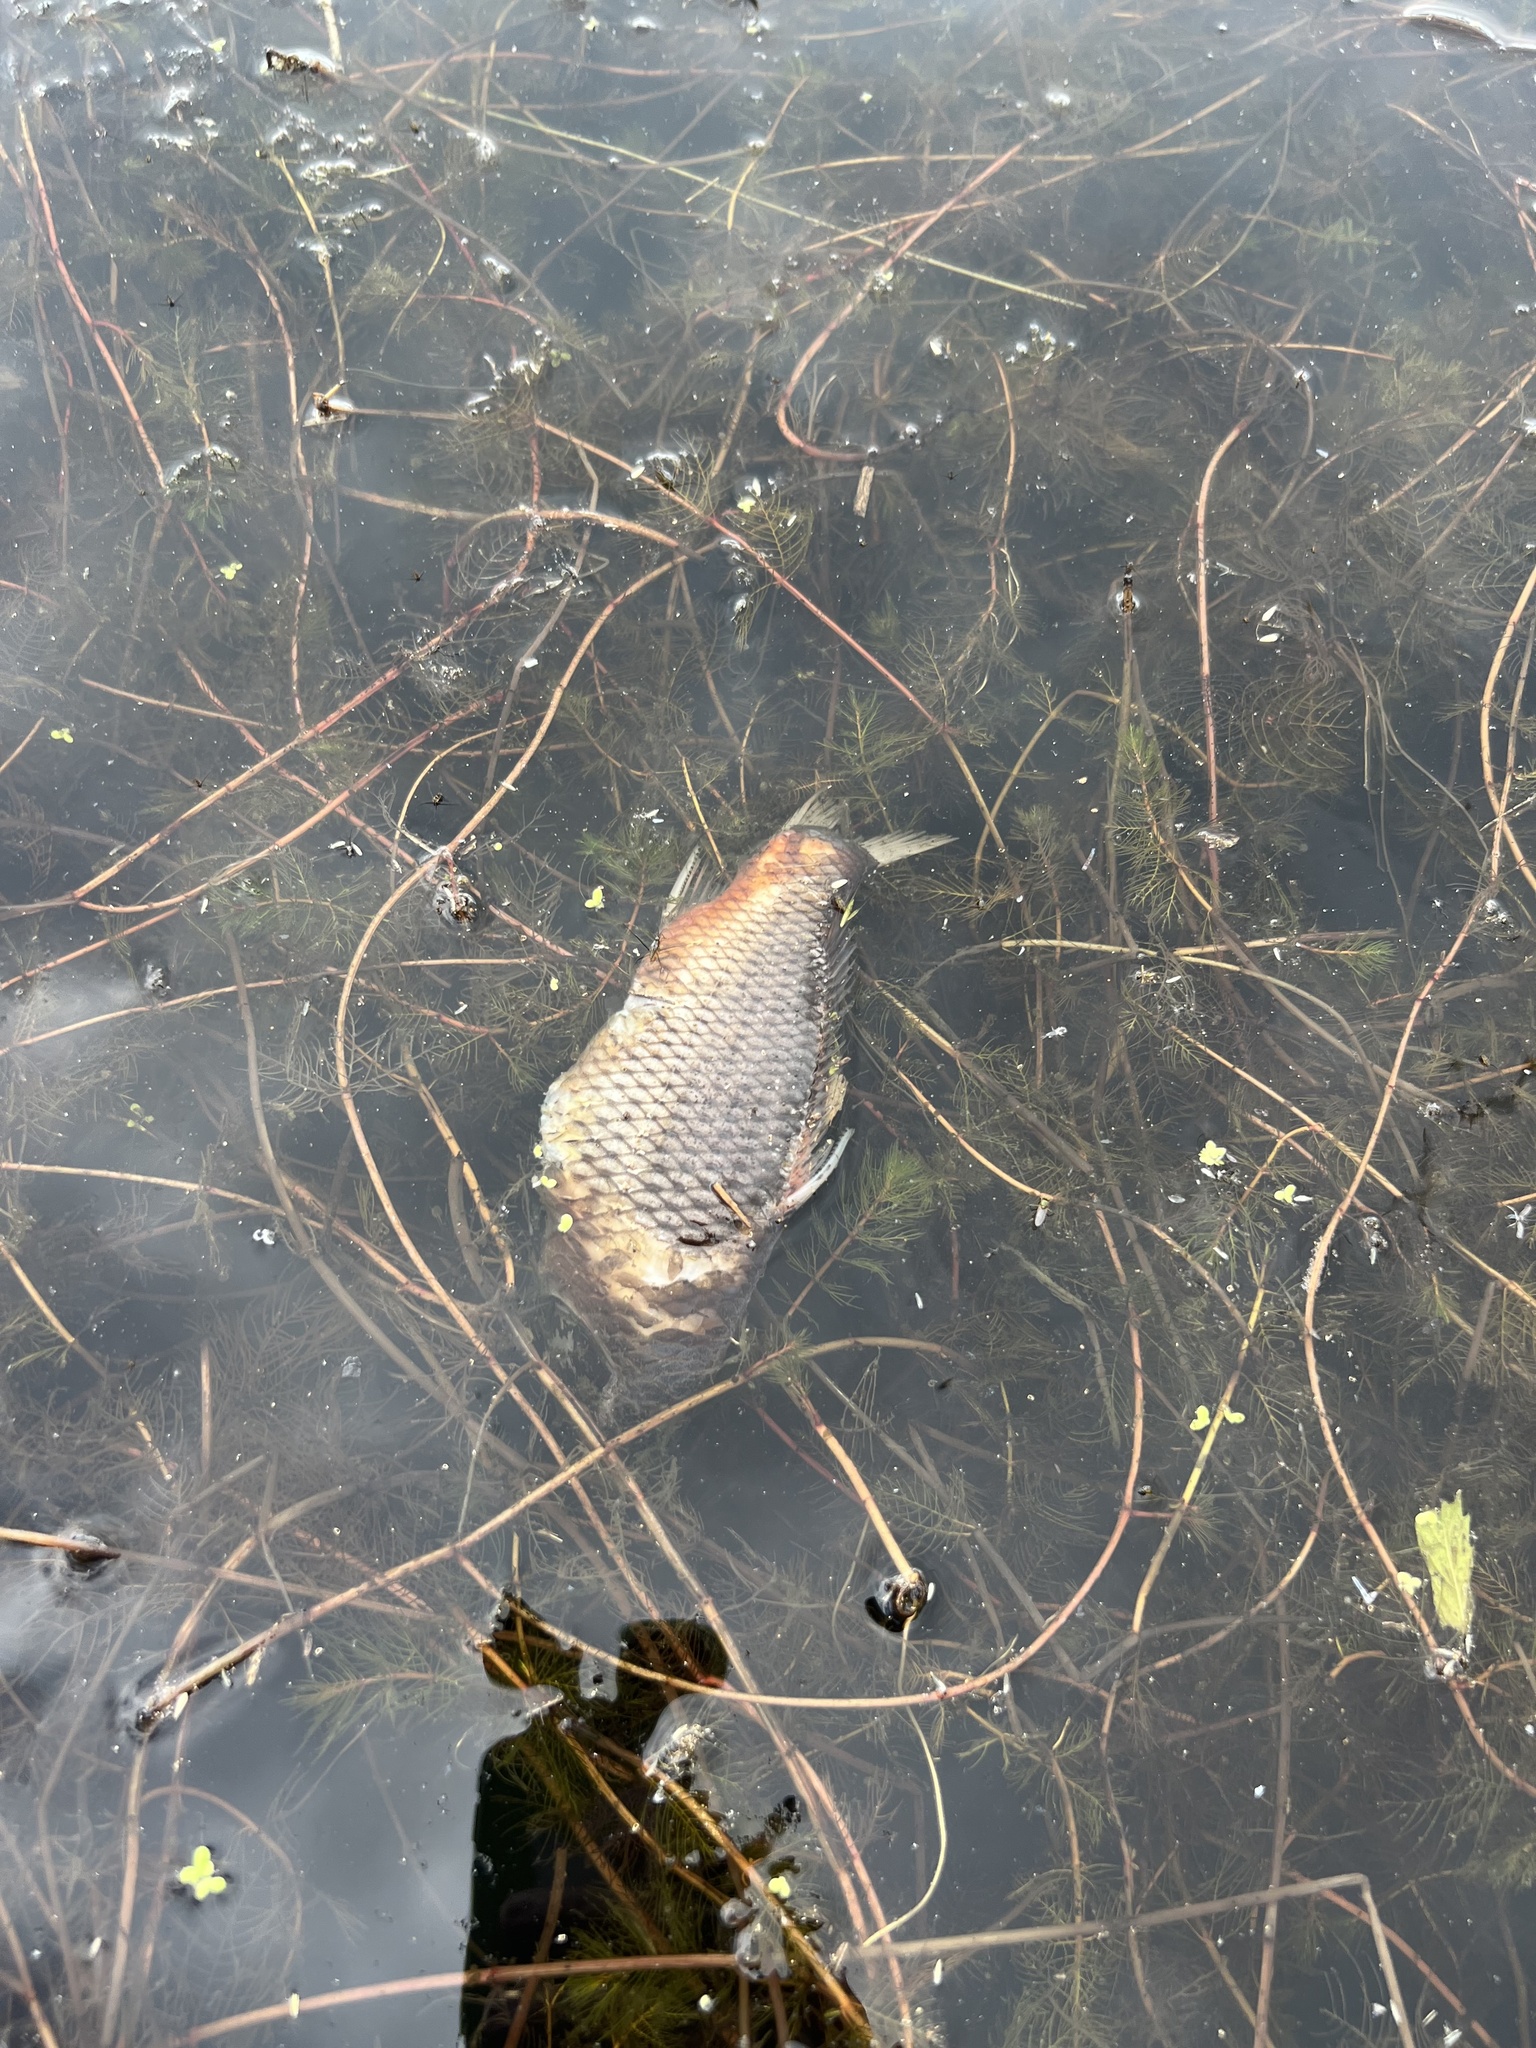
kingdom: Animalia
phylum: Chordata
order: Cypriniformes
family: Cyprinidae
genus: Cyprinus
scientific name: Cyprinus carpio
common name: Common carp
